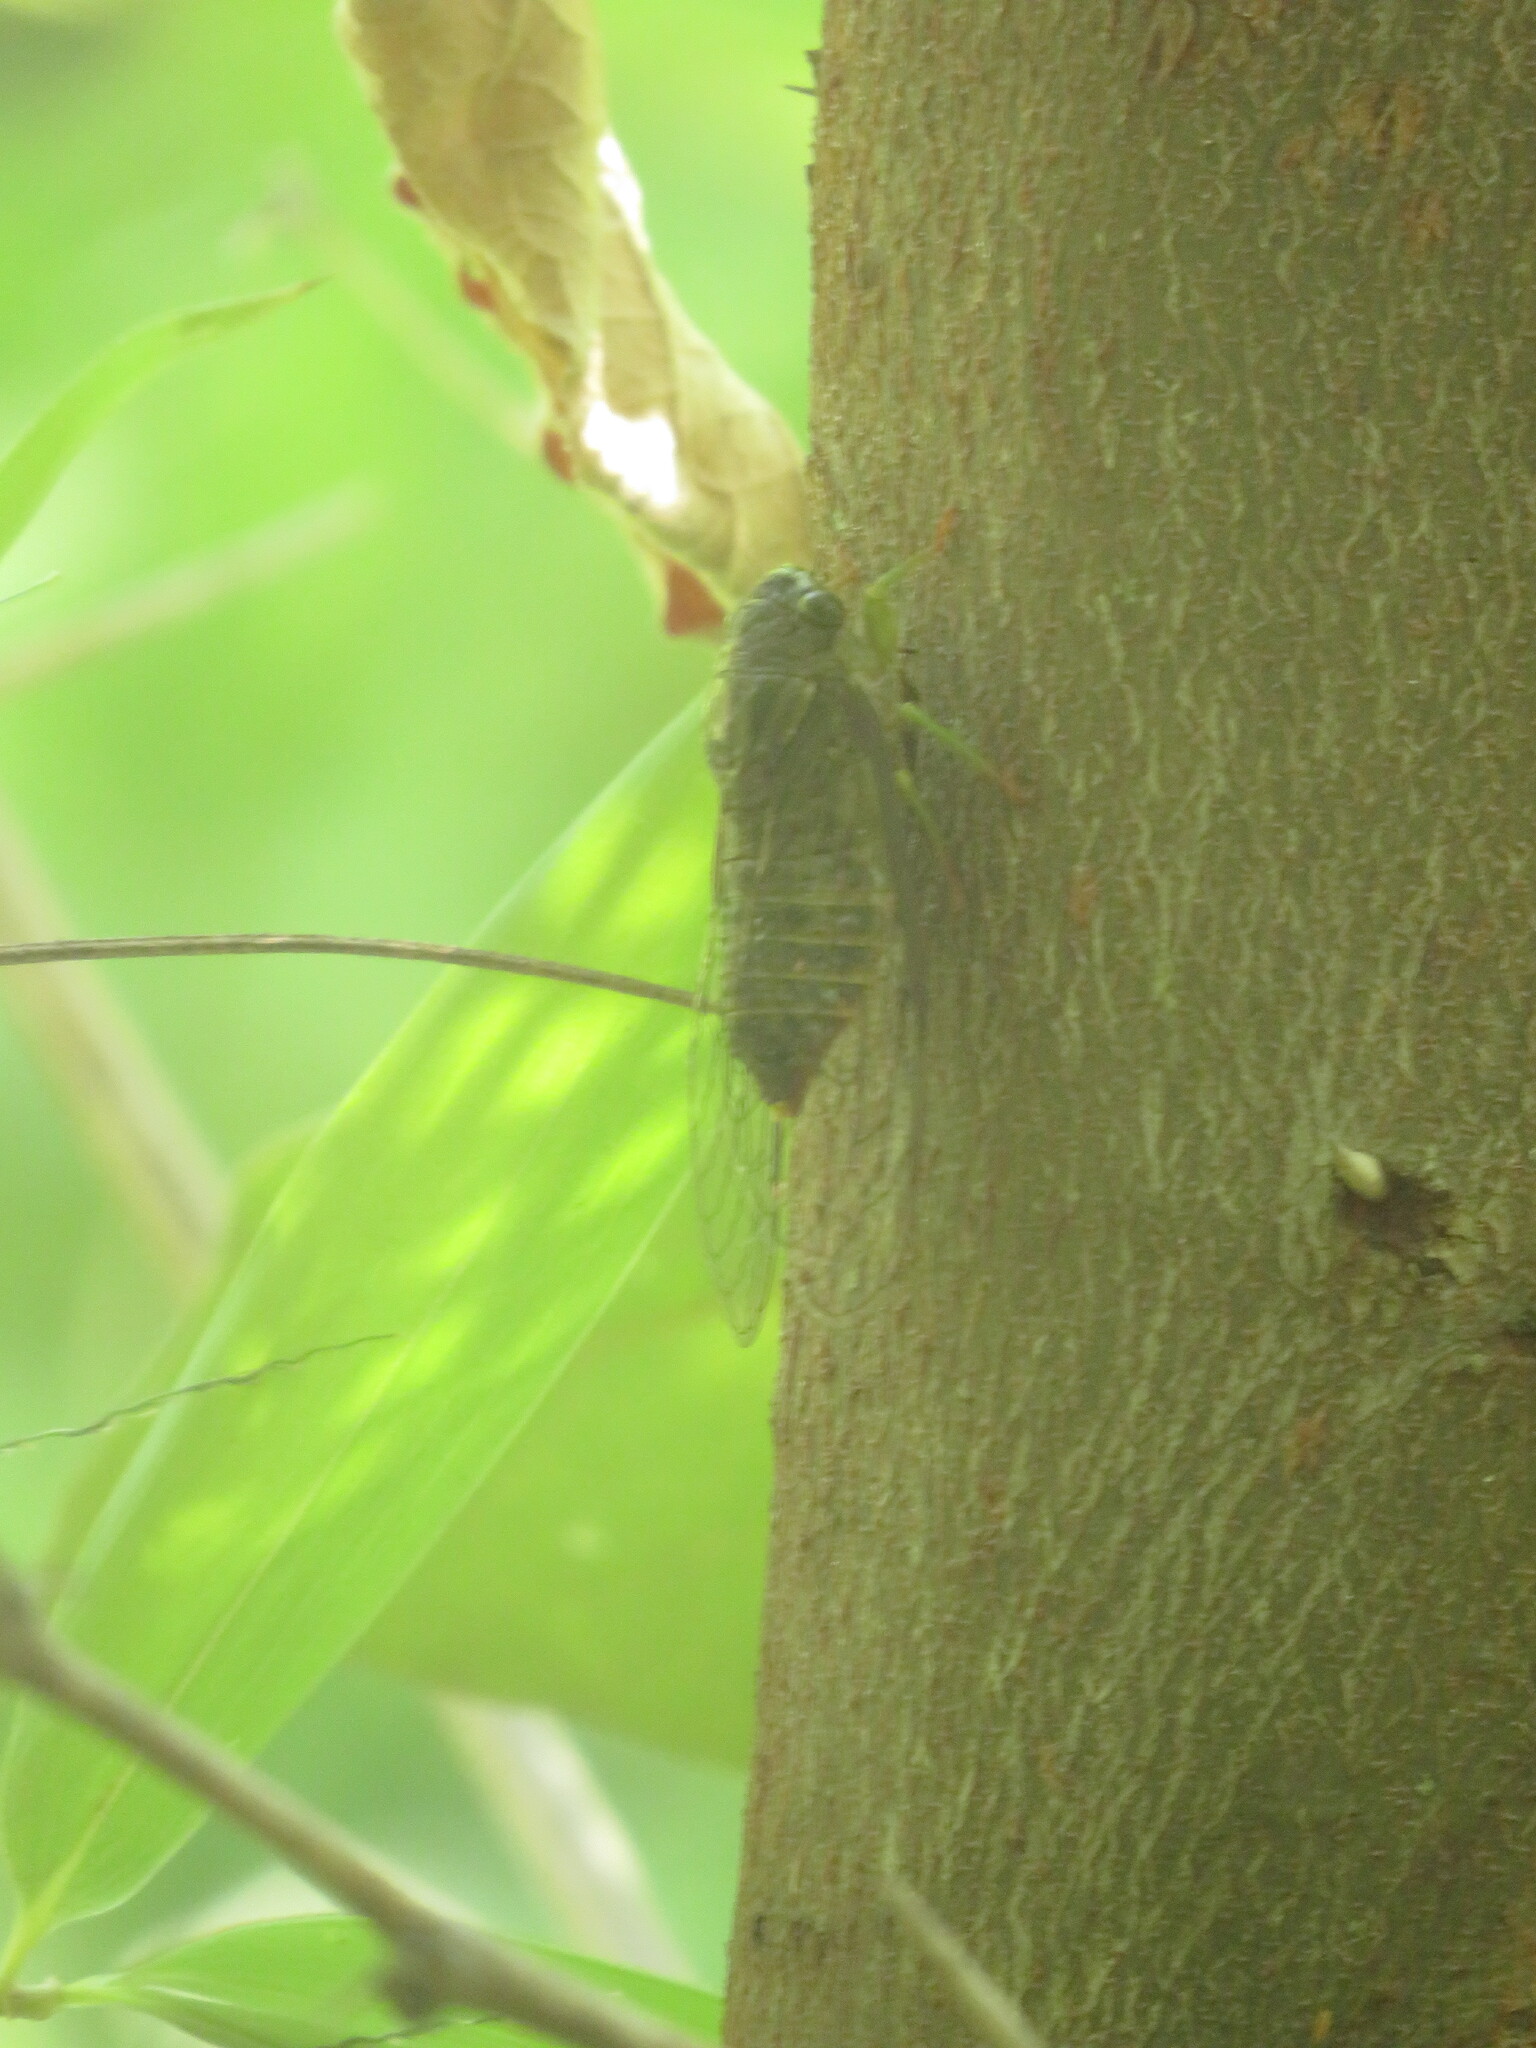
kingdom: Animalia
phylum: Arthropoda
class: Insecta
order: Hemiptera
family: Cicadidae
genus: Acanthoventris
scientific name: Acanthoventris drewseni
